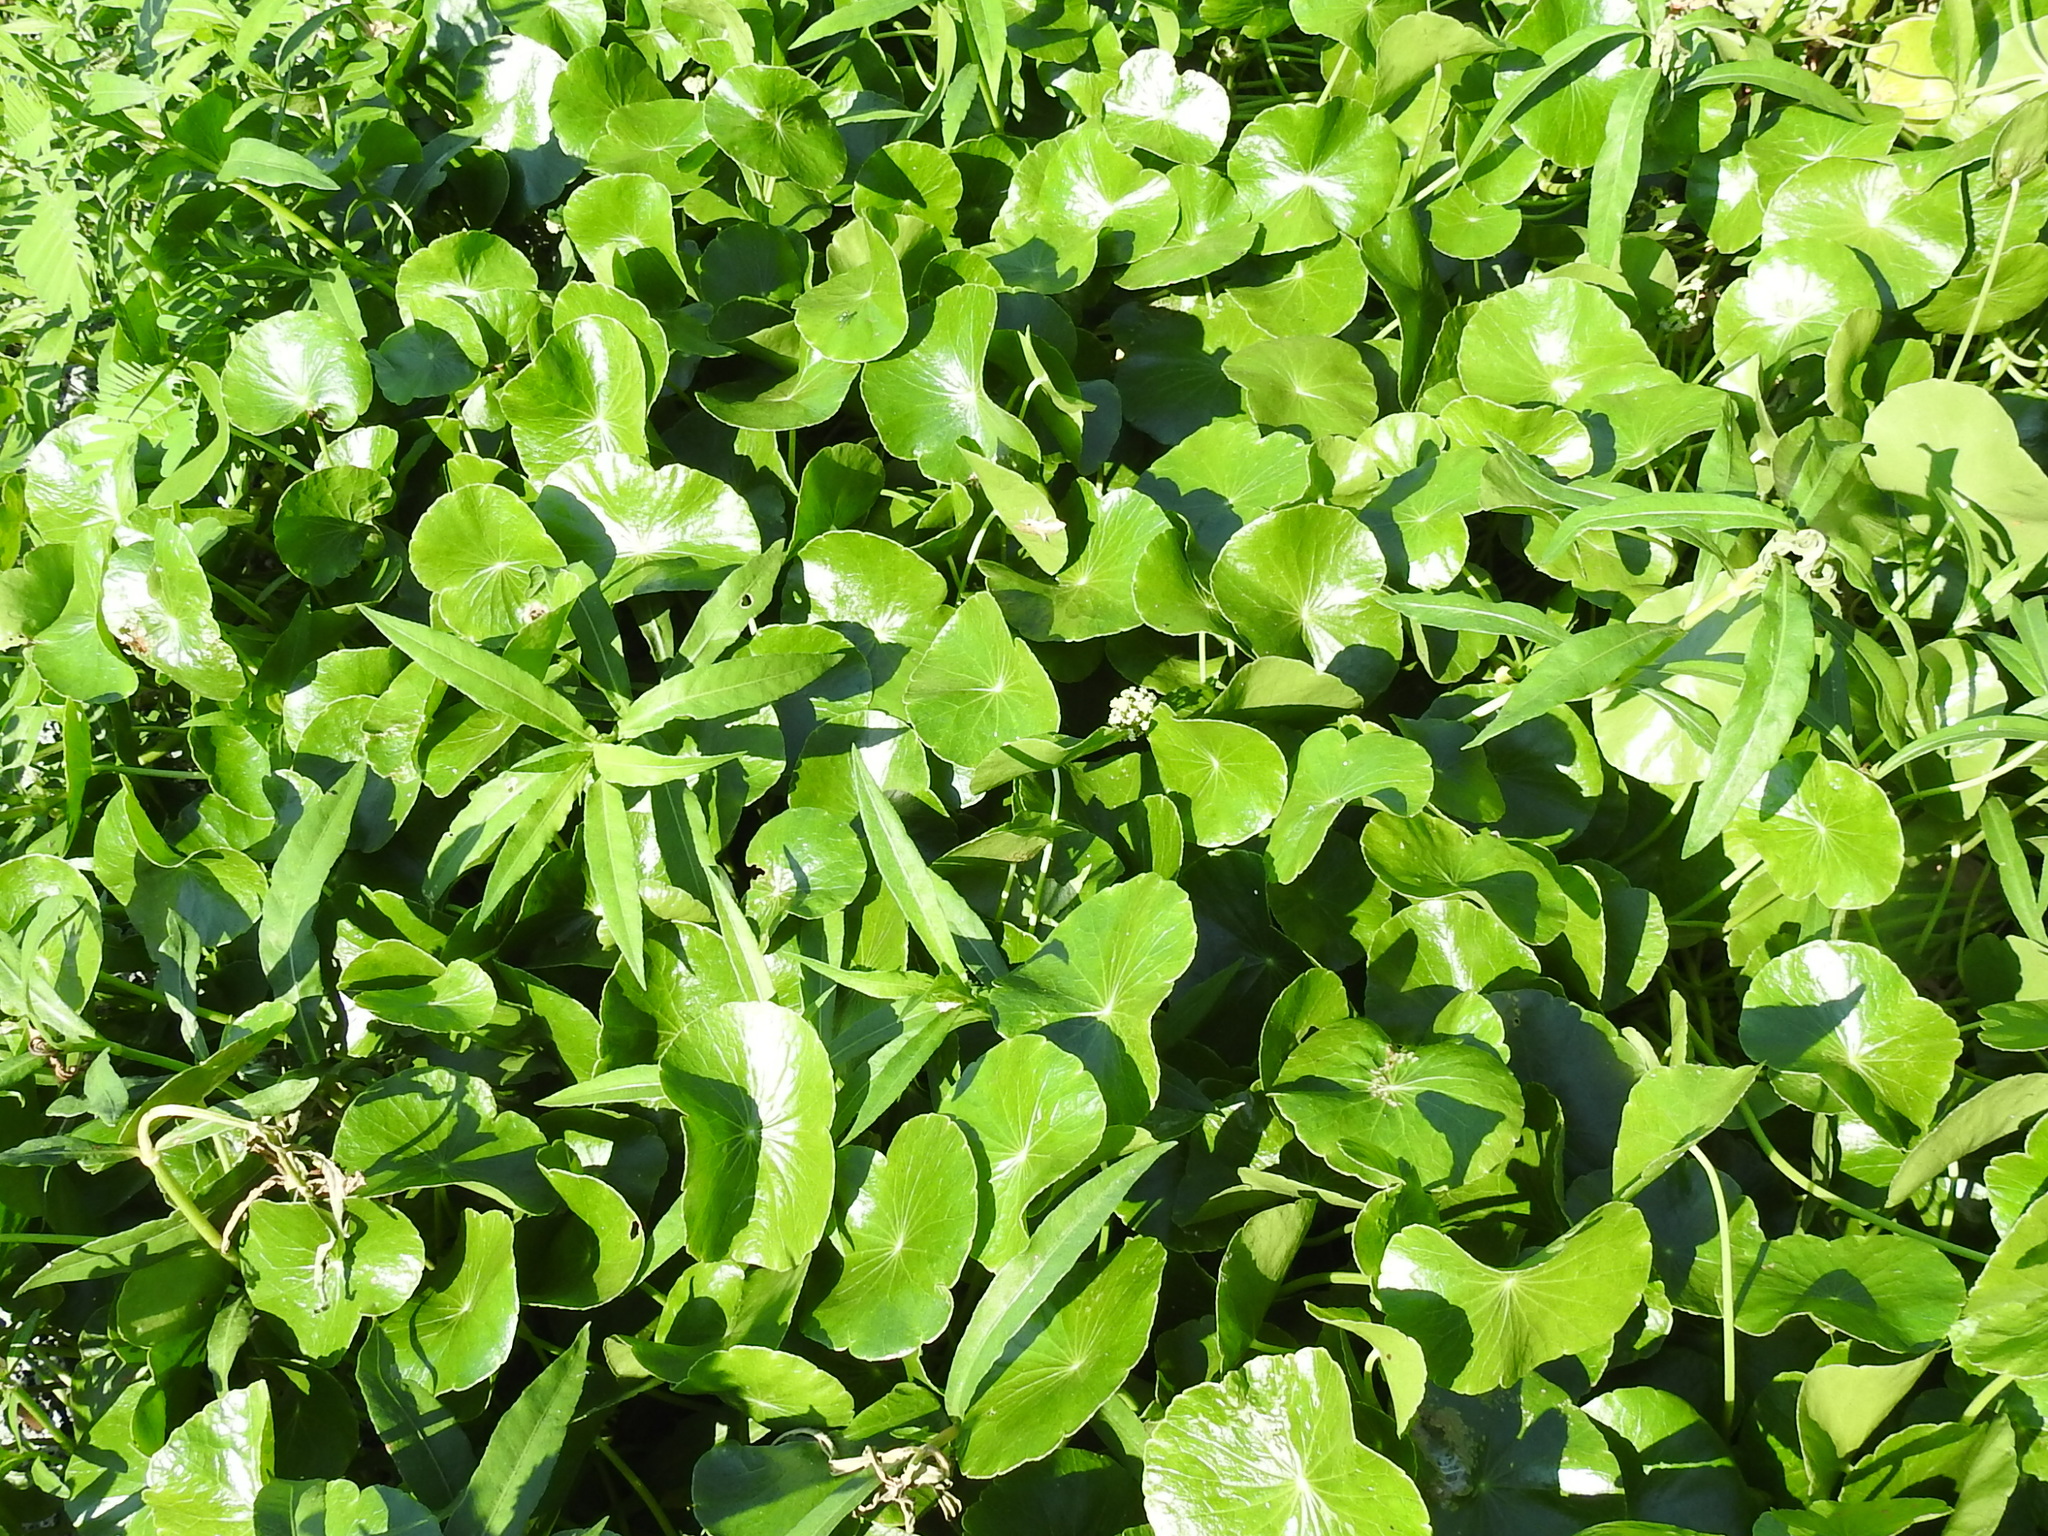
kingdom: Plantae
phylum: Tracheophyta
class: Magnoliopsida
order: Apiales
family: Araliaceae
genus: Hydrocotyle
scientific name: Hydrocotyle umbellata
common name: Water pennywort
